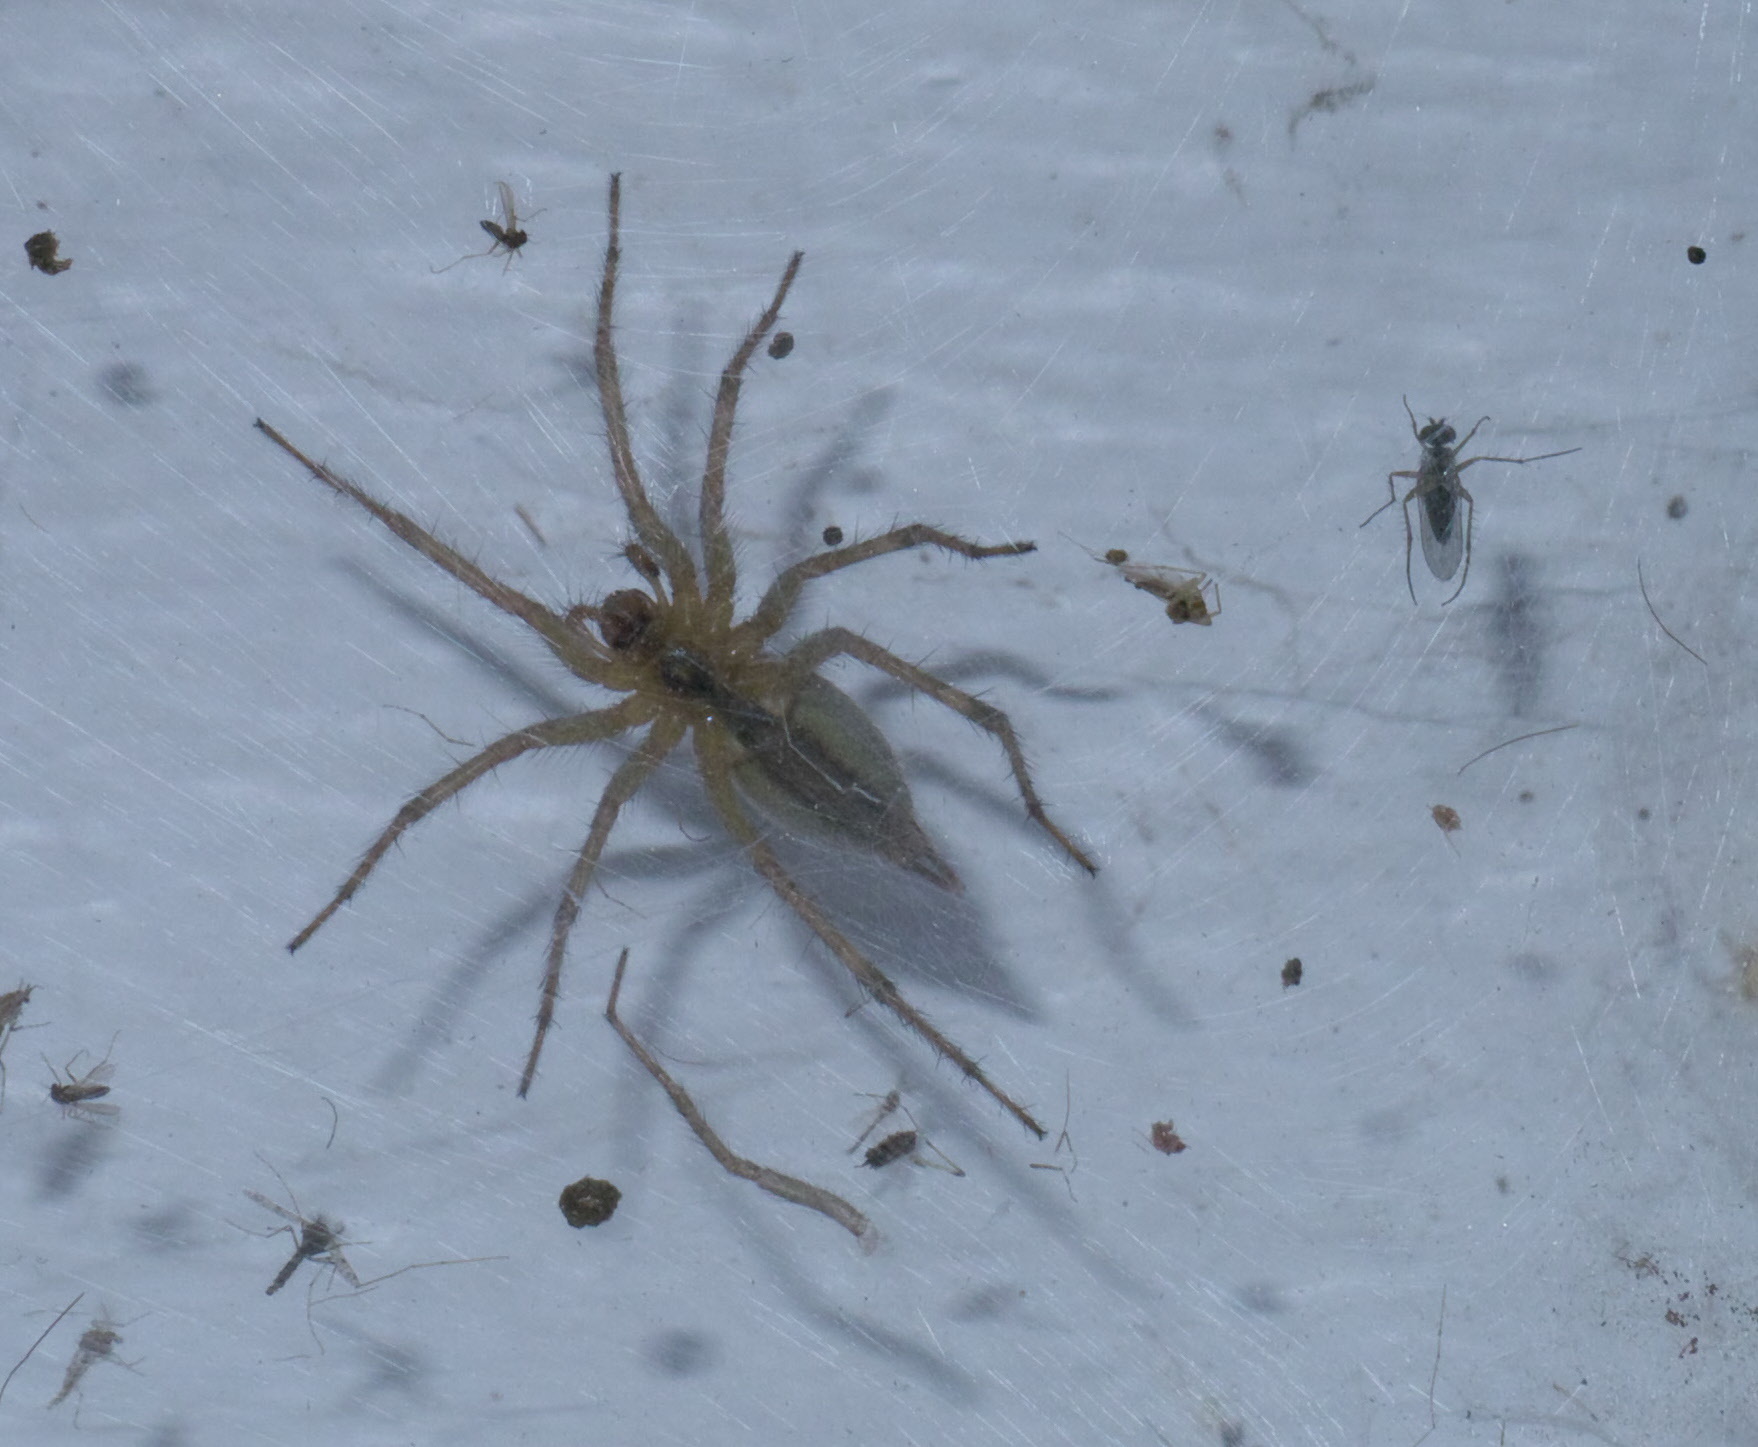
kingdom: Animalia
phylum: Arthropoda
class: Arachnida
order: Araneae
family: Agelenidae
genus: Agelenopsis
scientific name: Agelenopsis
